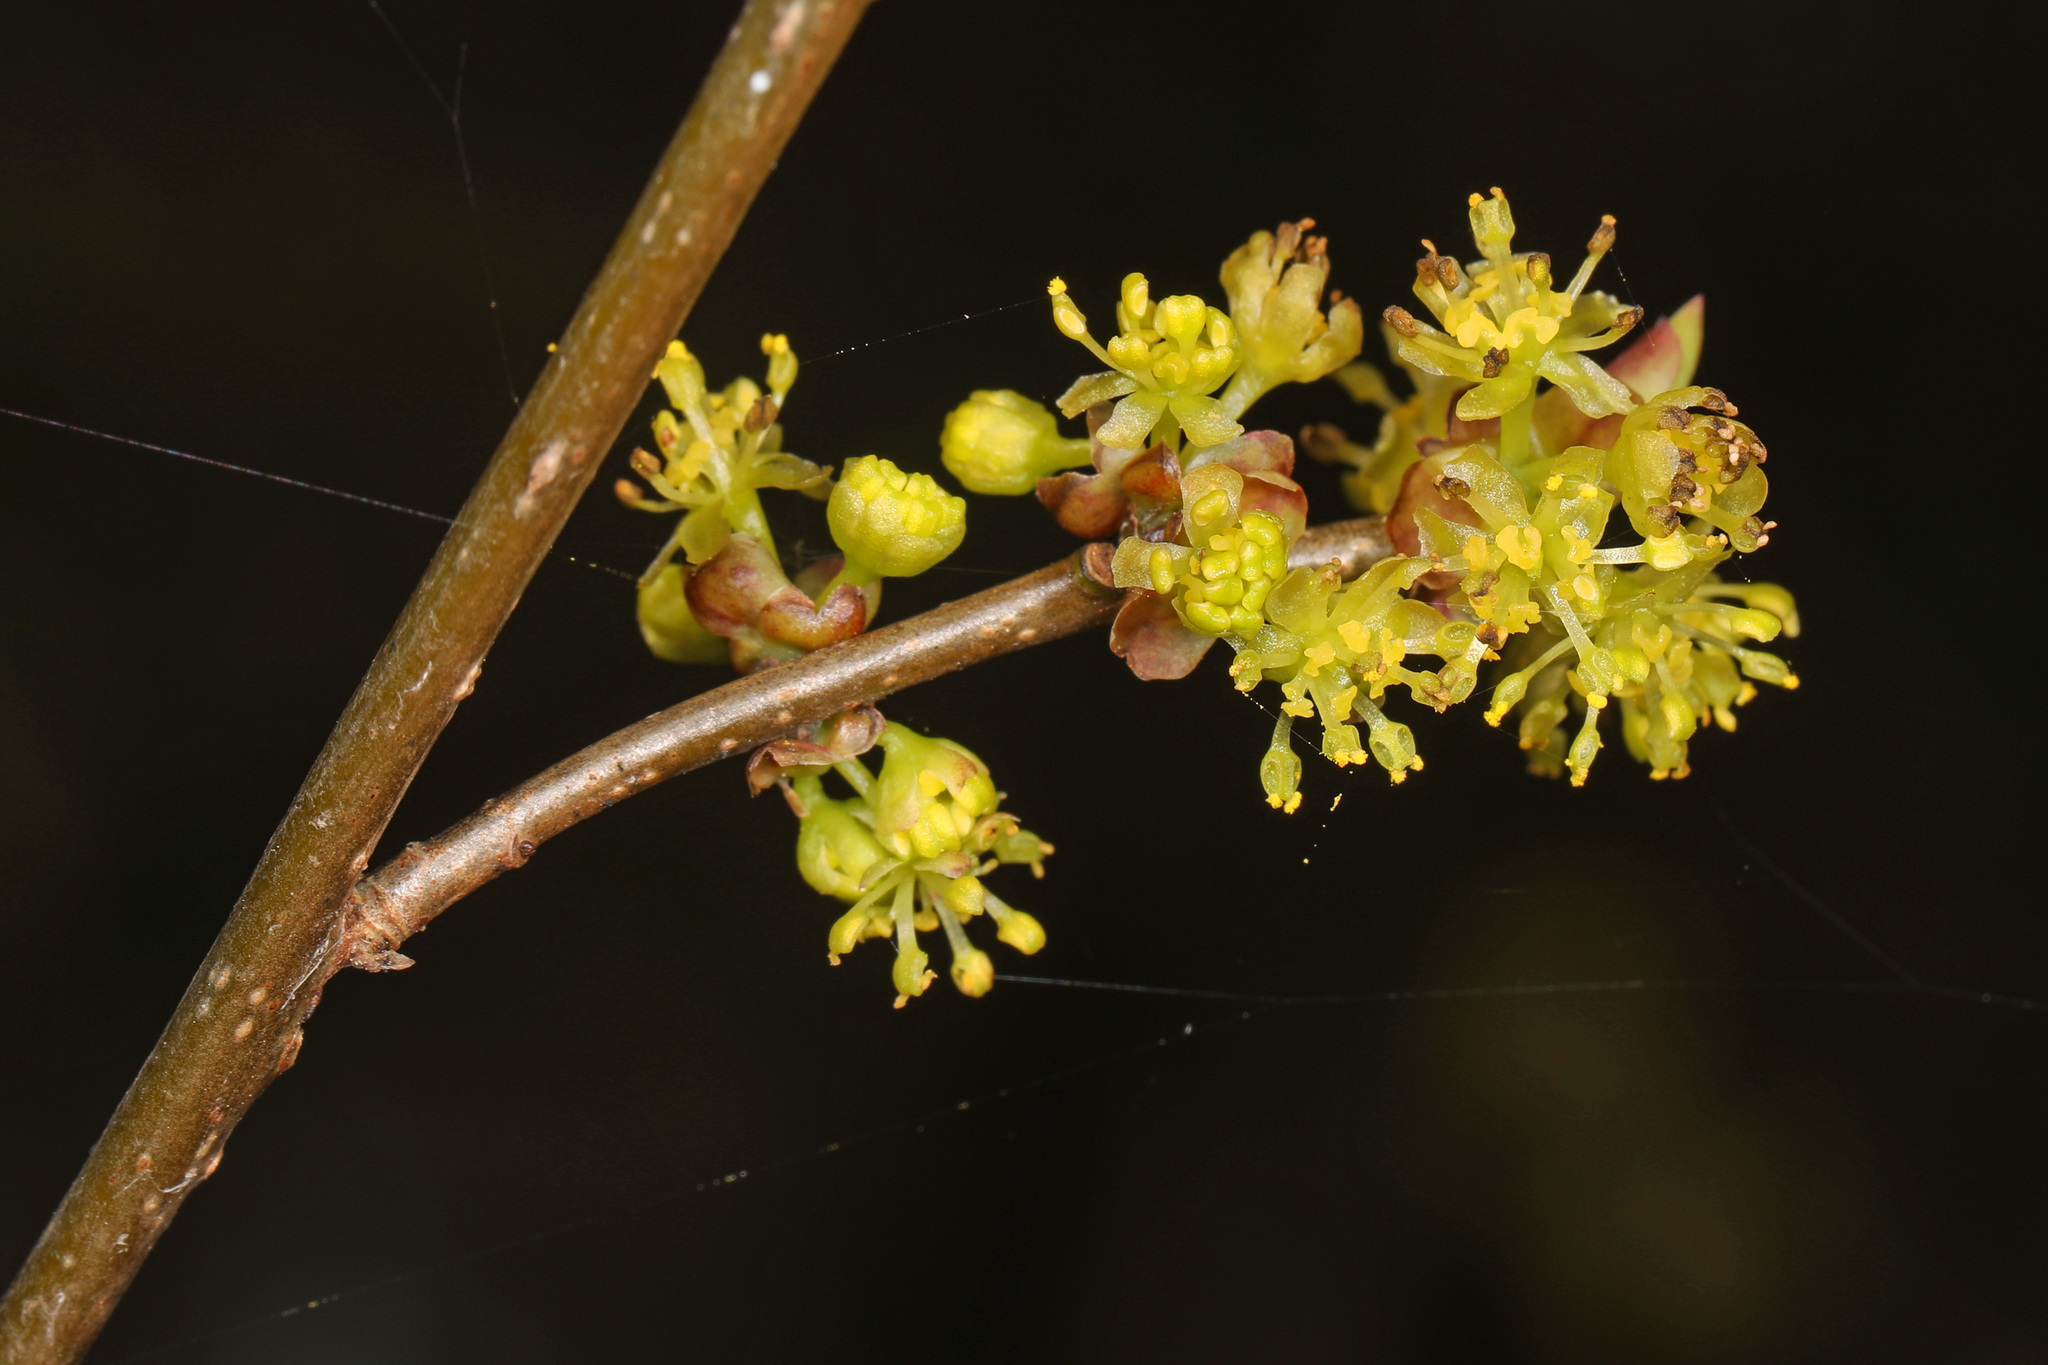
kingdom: Plantae
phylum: Tracheophyta
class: Magnoliopsida
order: Laurales
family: Lauraceae
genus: Lindera
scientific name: Lindera benzoin
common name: Spicebush
